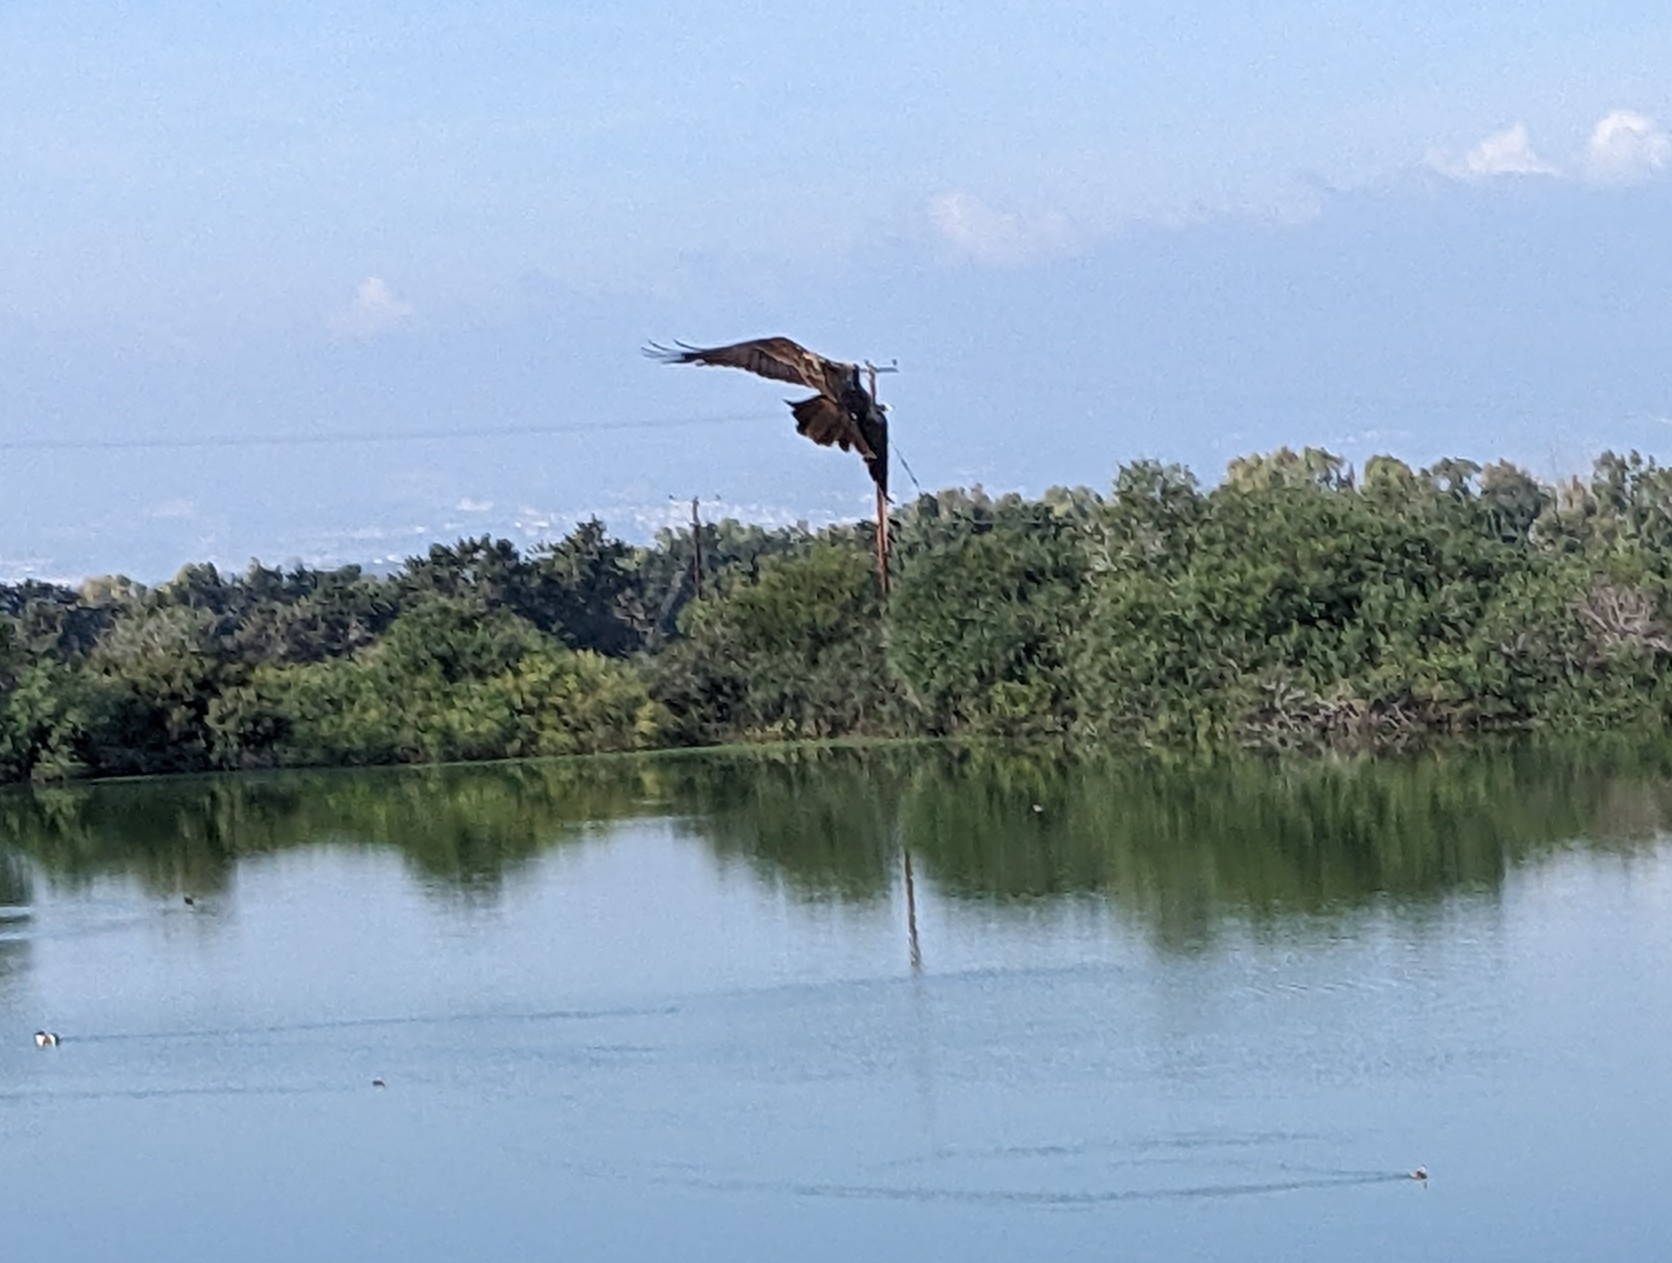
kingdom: Animalia
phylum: Chordata
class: Aves
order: Accipitriformes
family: Accipitridae
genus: Circus
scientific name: Circus aeruginosus
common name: Western marsh harrier
